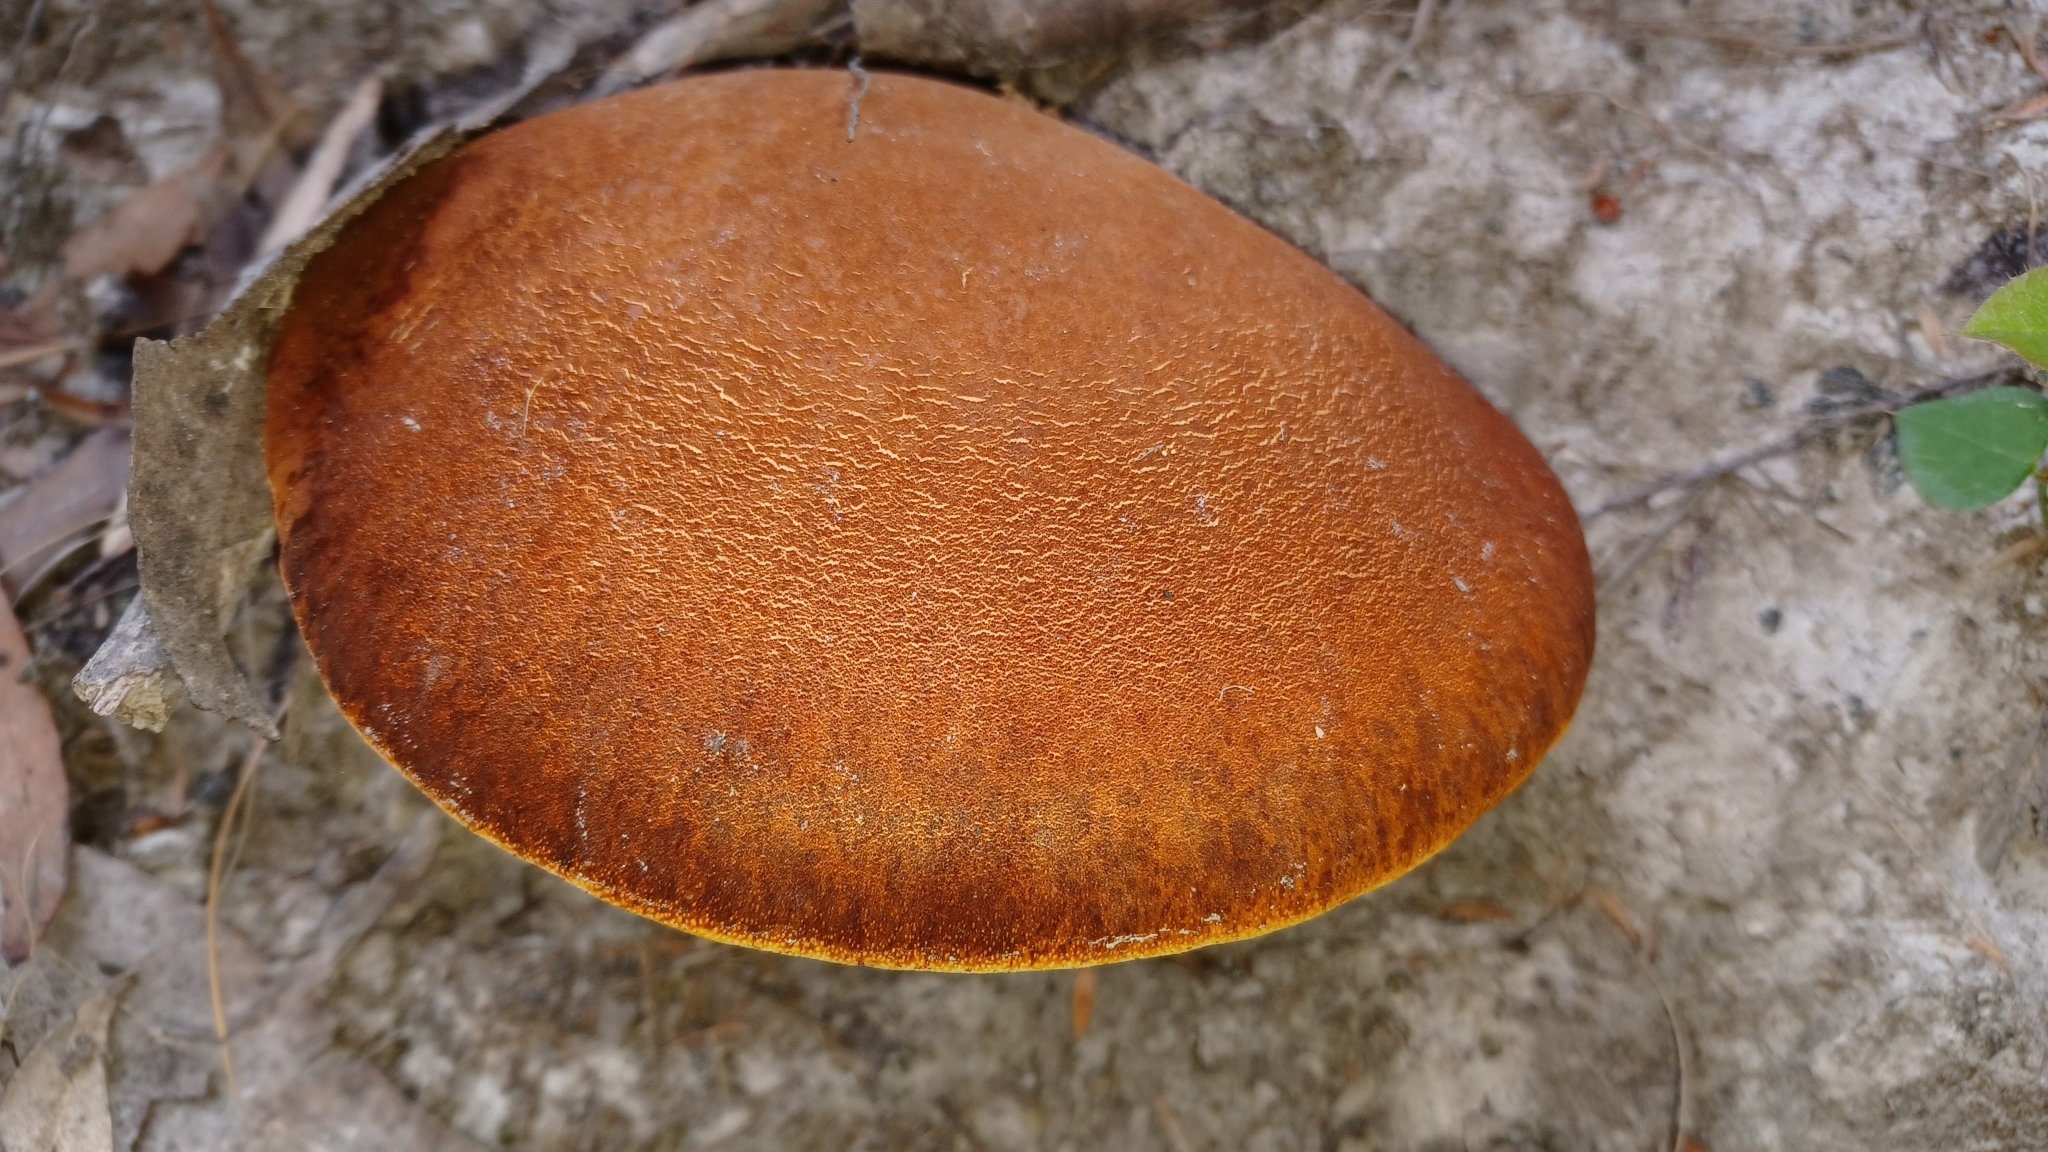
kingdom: Fungi
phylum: Basidiomycota
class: Agaricomycetes
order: Polyporales
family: Fomitopsidaceae
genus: Fomitopsis
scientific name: Fomitopsis
